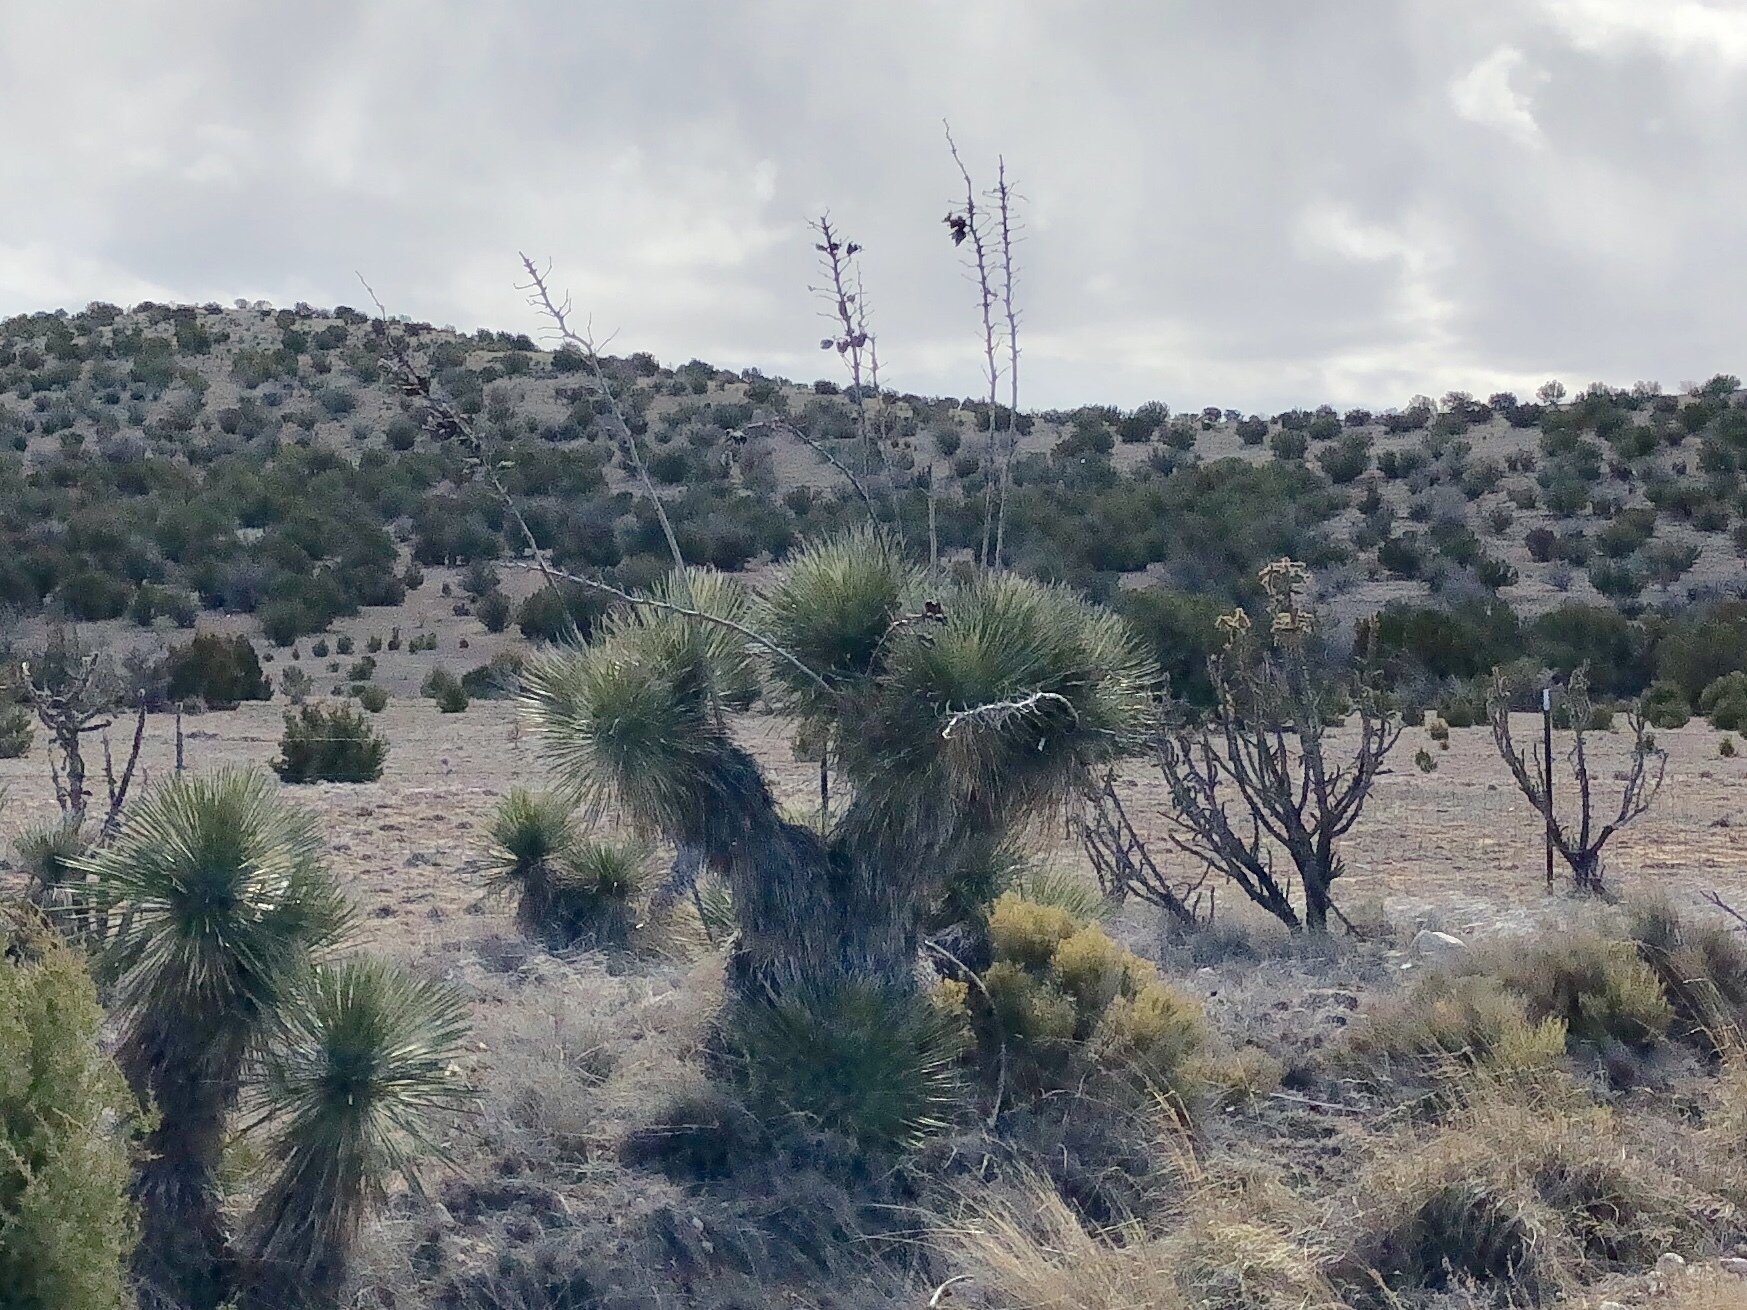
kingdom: Plantae
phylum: Tracheophyta
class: Liliopsida
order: Asparagales
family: Asparagaceae
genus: Yucca
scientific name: Yucca elata
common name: Palmella
